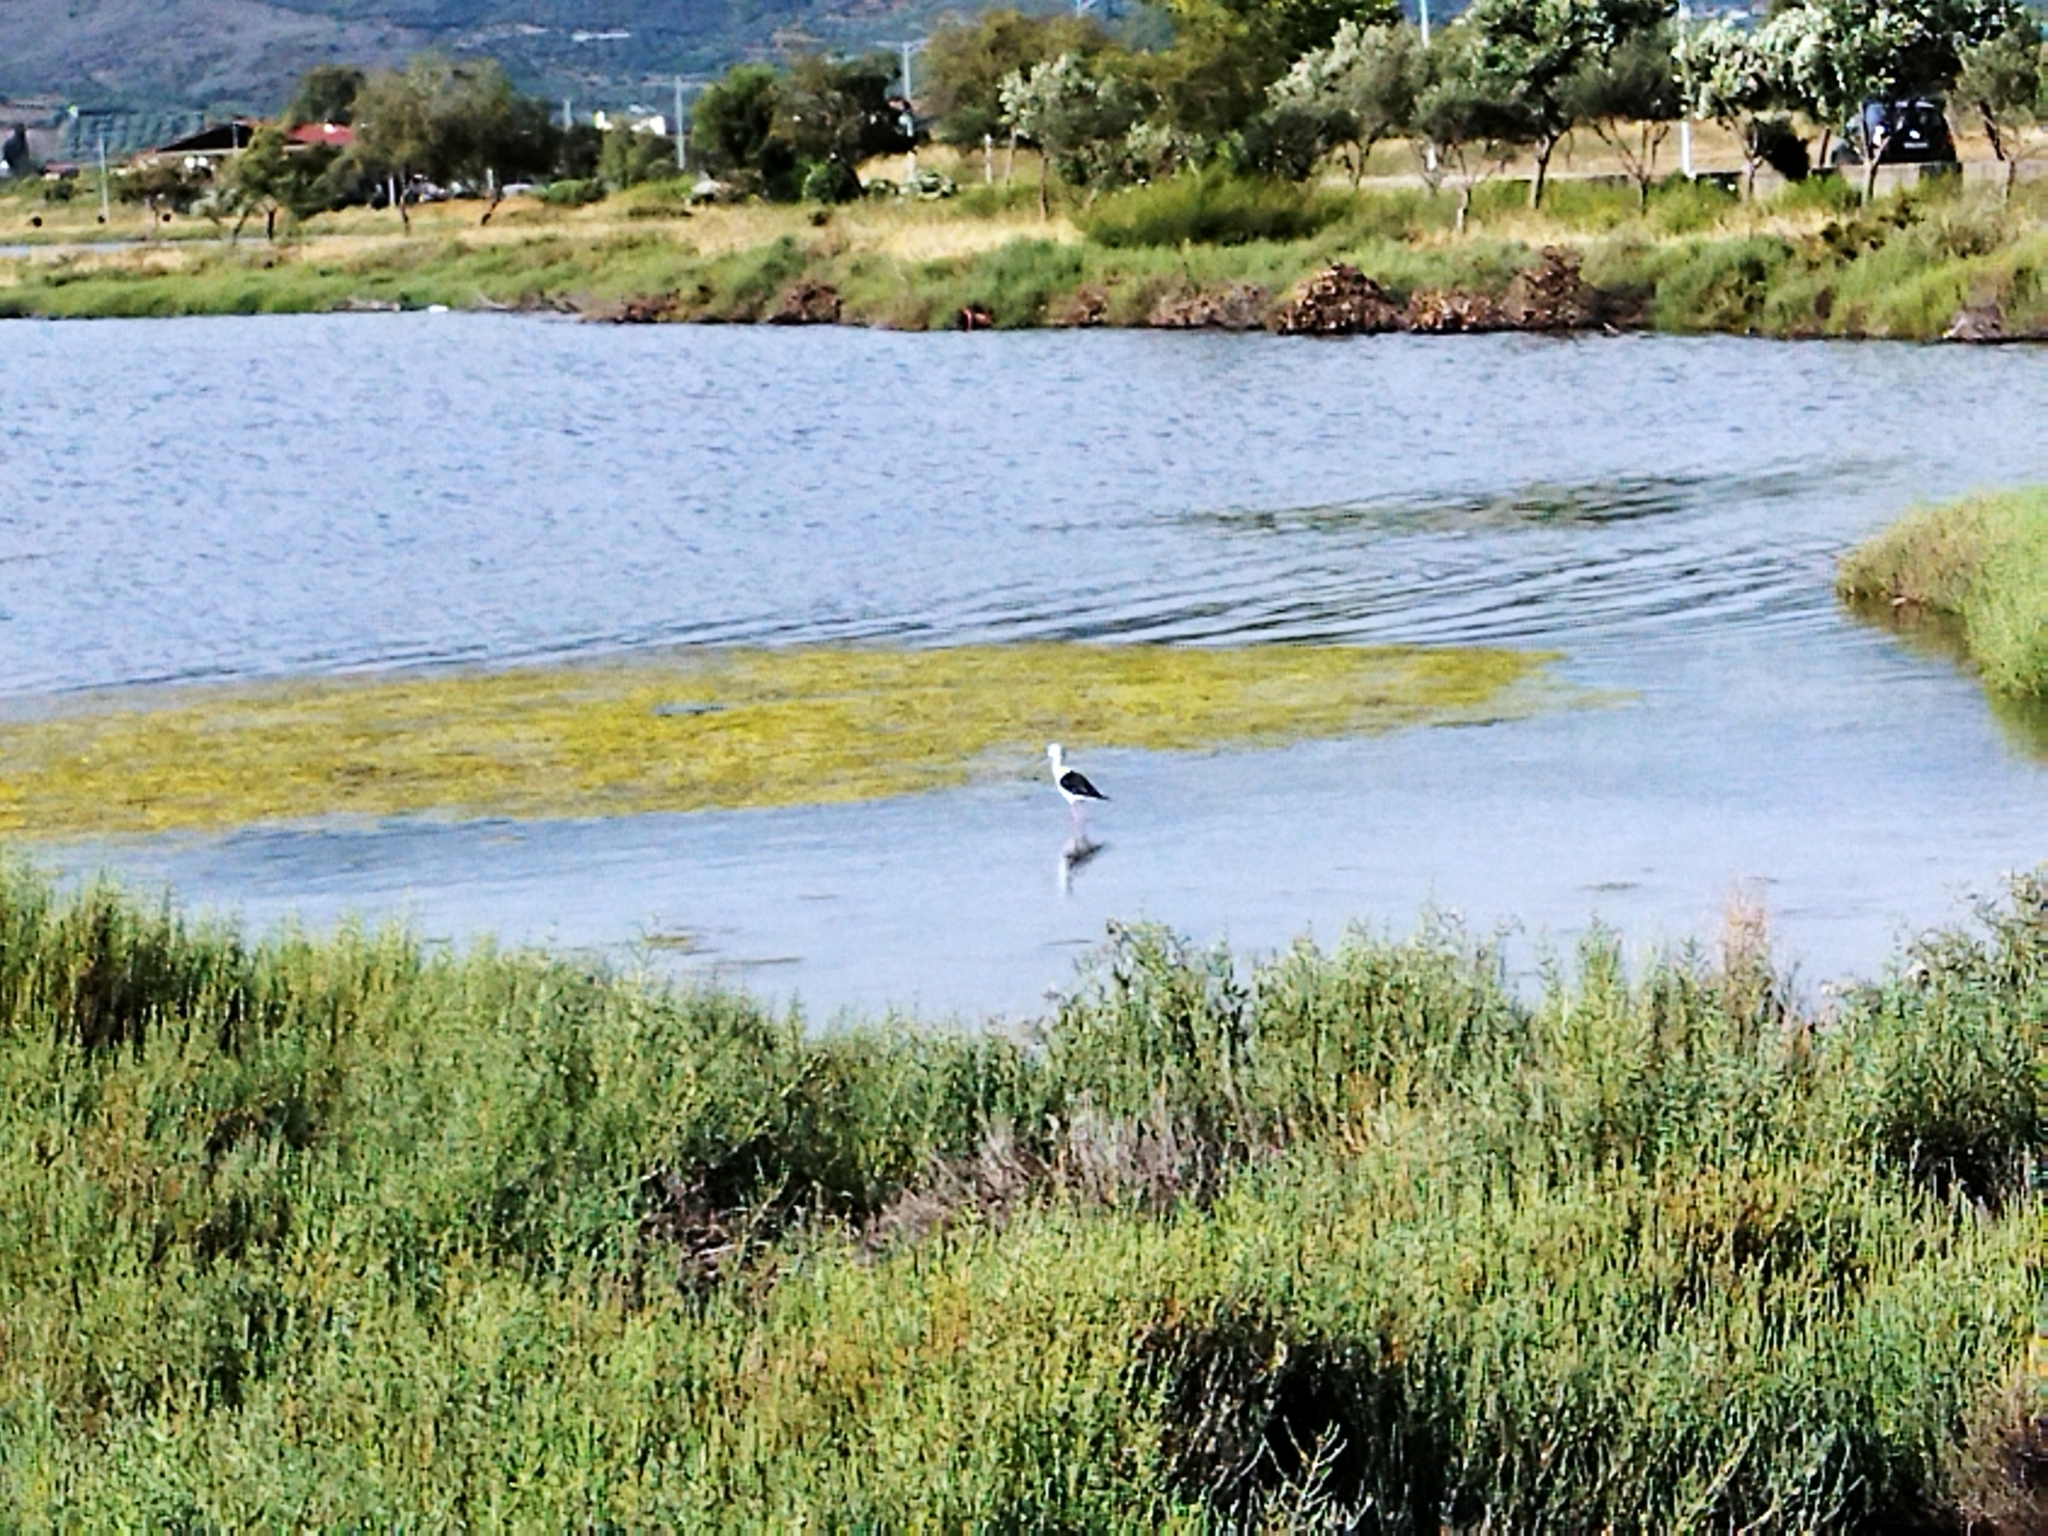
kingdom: Animalia
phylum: Chordata
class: Aves
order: Charadriiformes
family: Recurvirostridae
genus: Himantopus
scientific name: Himantopus himantopus
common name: Black-winged stilt
